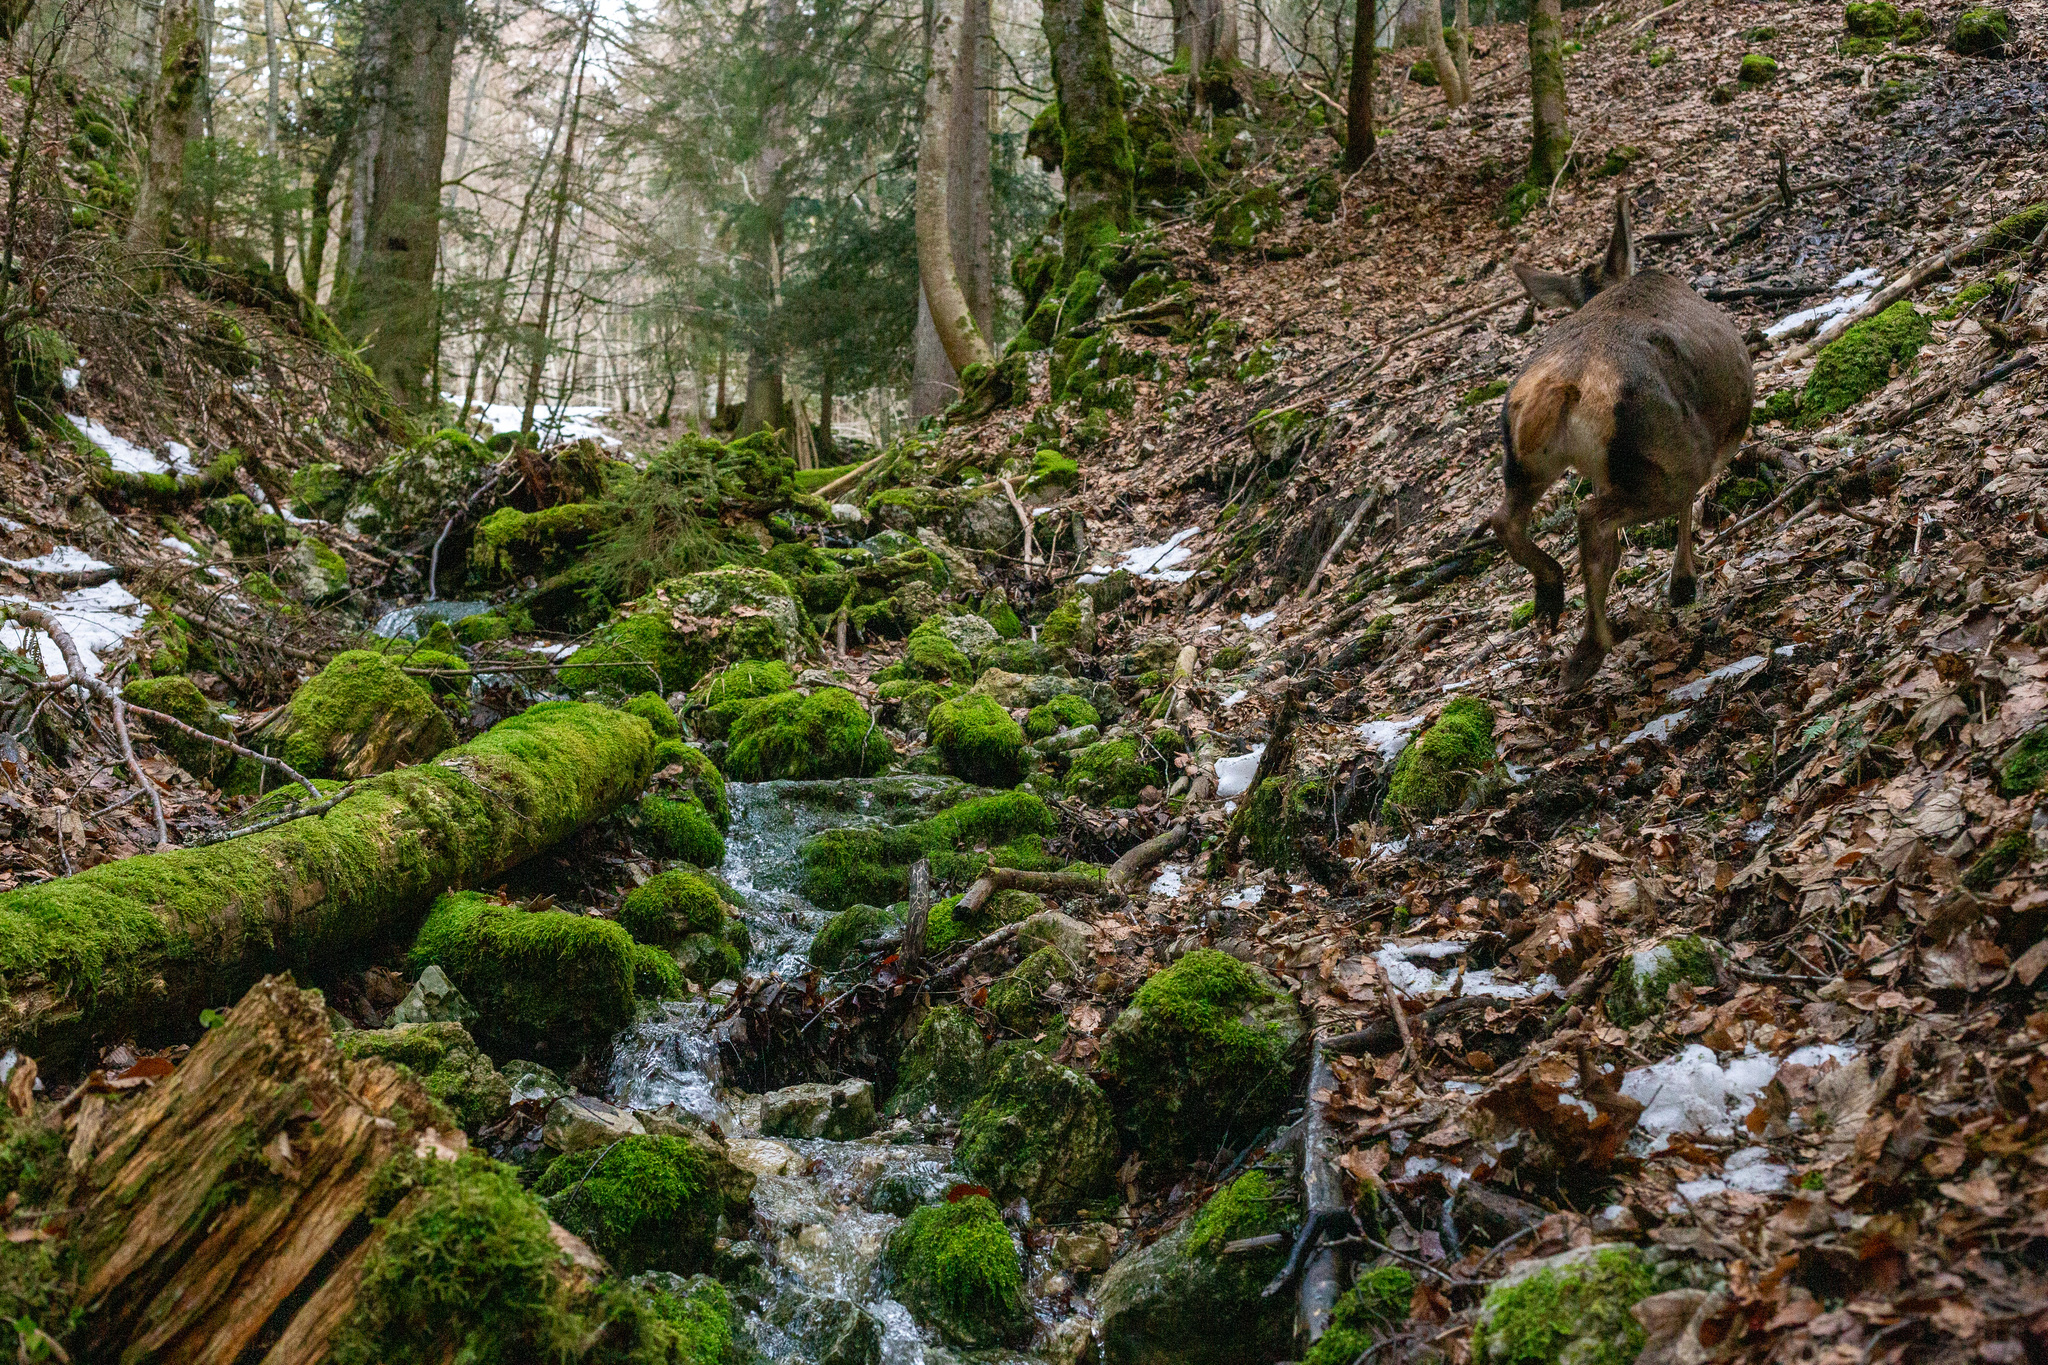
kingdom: Animalia
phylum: Chordata
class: Mammalia
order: Artiodactyla
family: Cervidae
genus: Cervus
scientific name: Cervus elaphus
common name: Red deer
